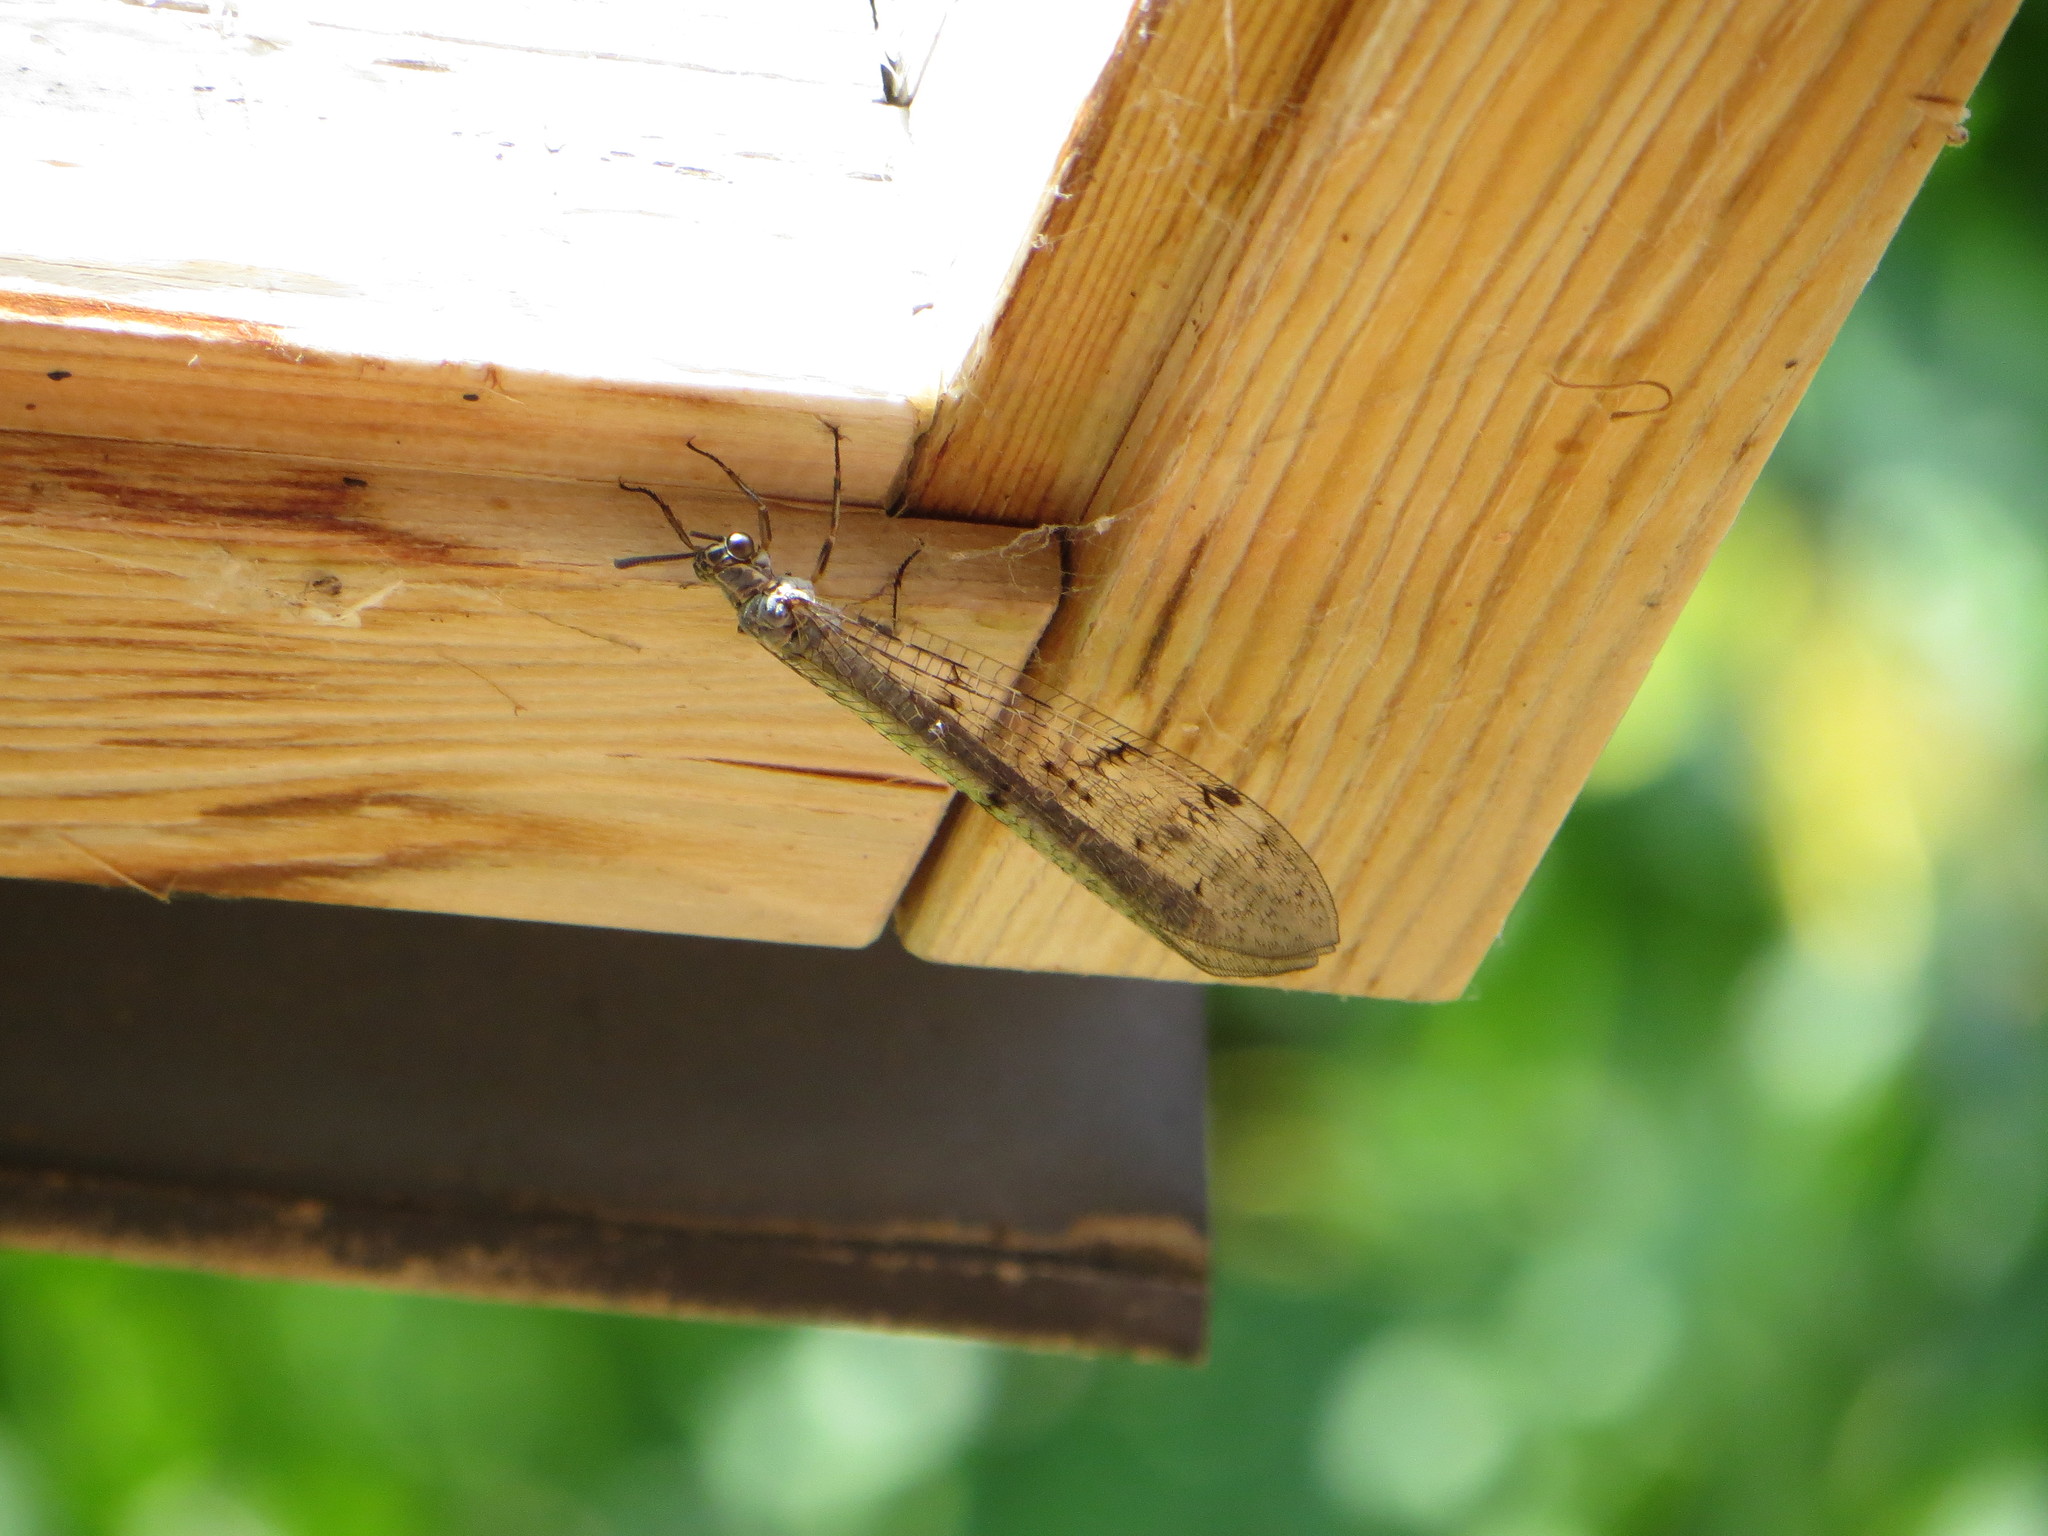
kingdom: Animalia
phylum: Arthropoda
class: Insecta
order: Neuroptera
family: Myrmeleontidae
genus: Euroleon
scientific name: Euroleon nostras
